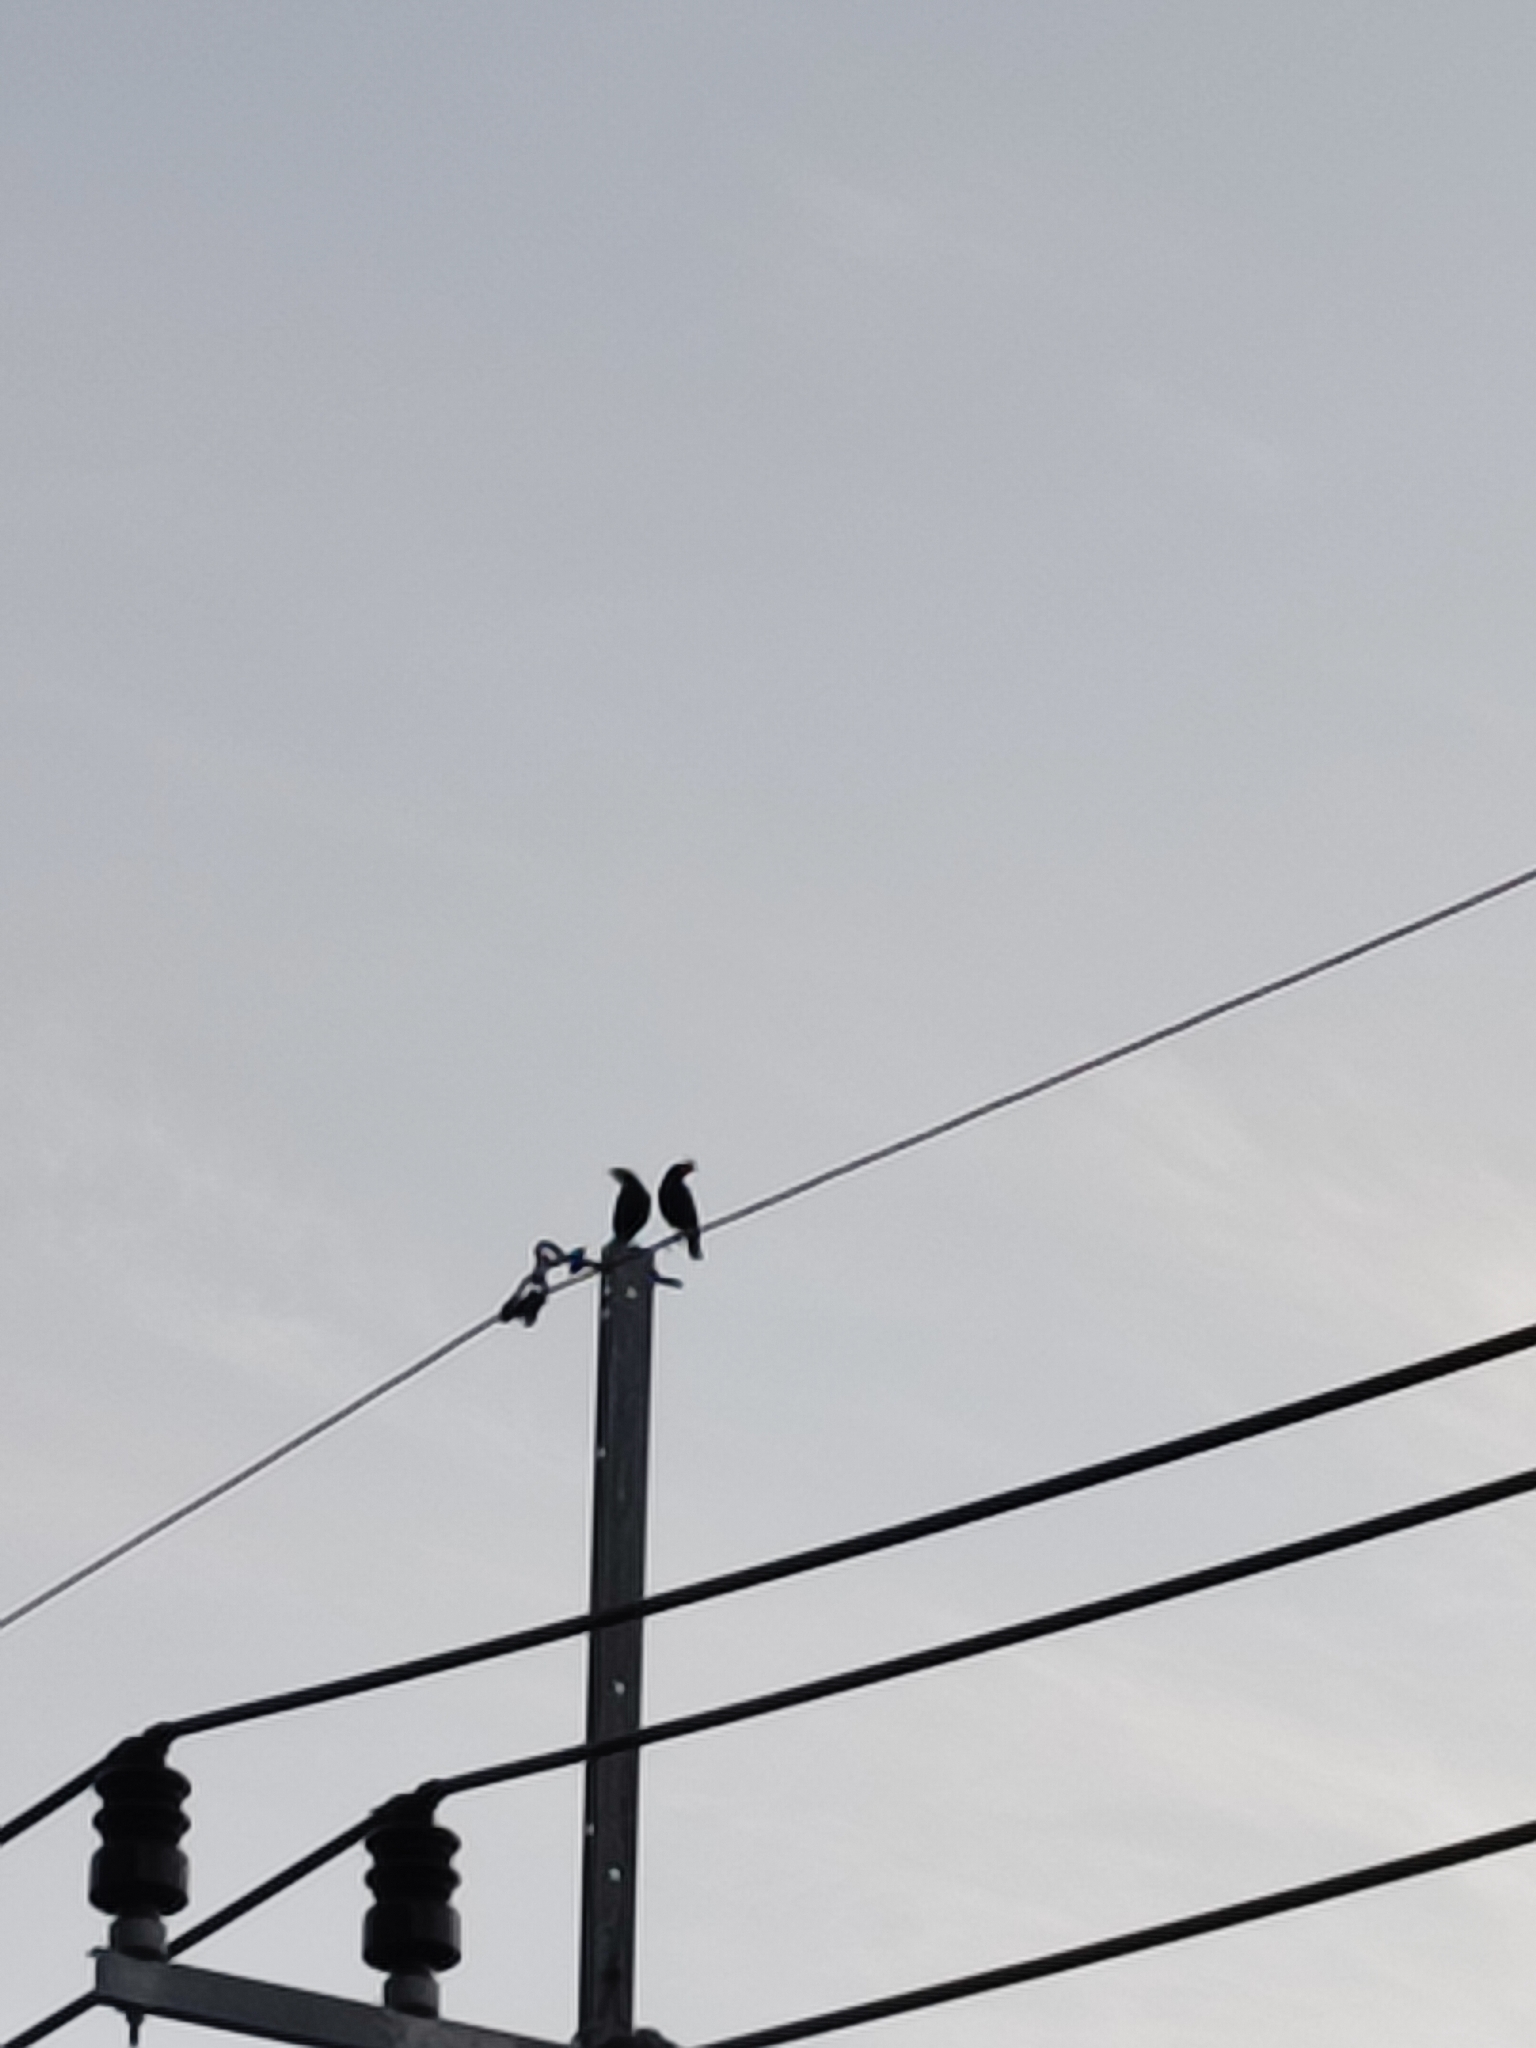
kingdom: Animalia
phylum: Chordata
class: Aves
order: Passeriformes
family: Sturnidae
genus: Acridotheres
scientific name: Acridotheres grandis
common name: Great myna
